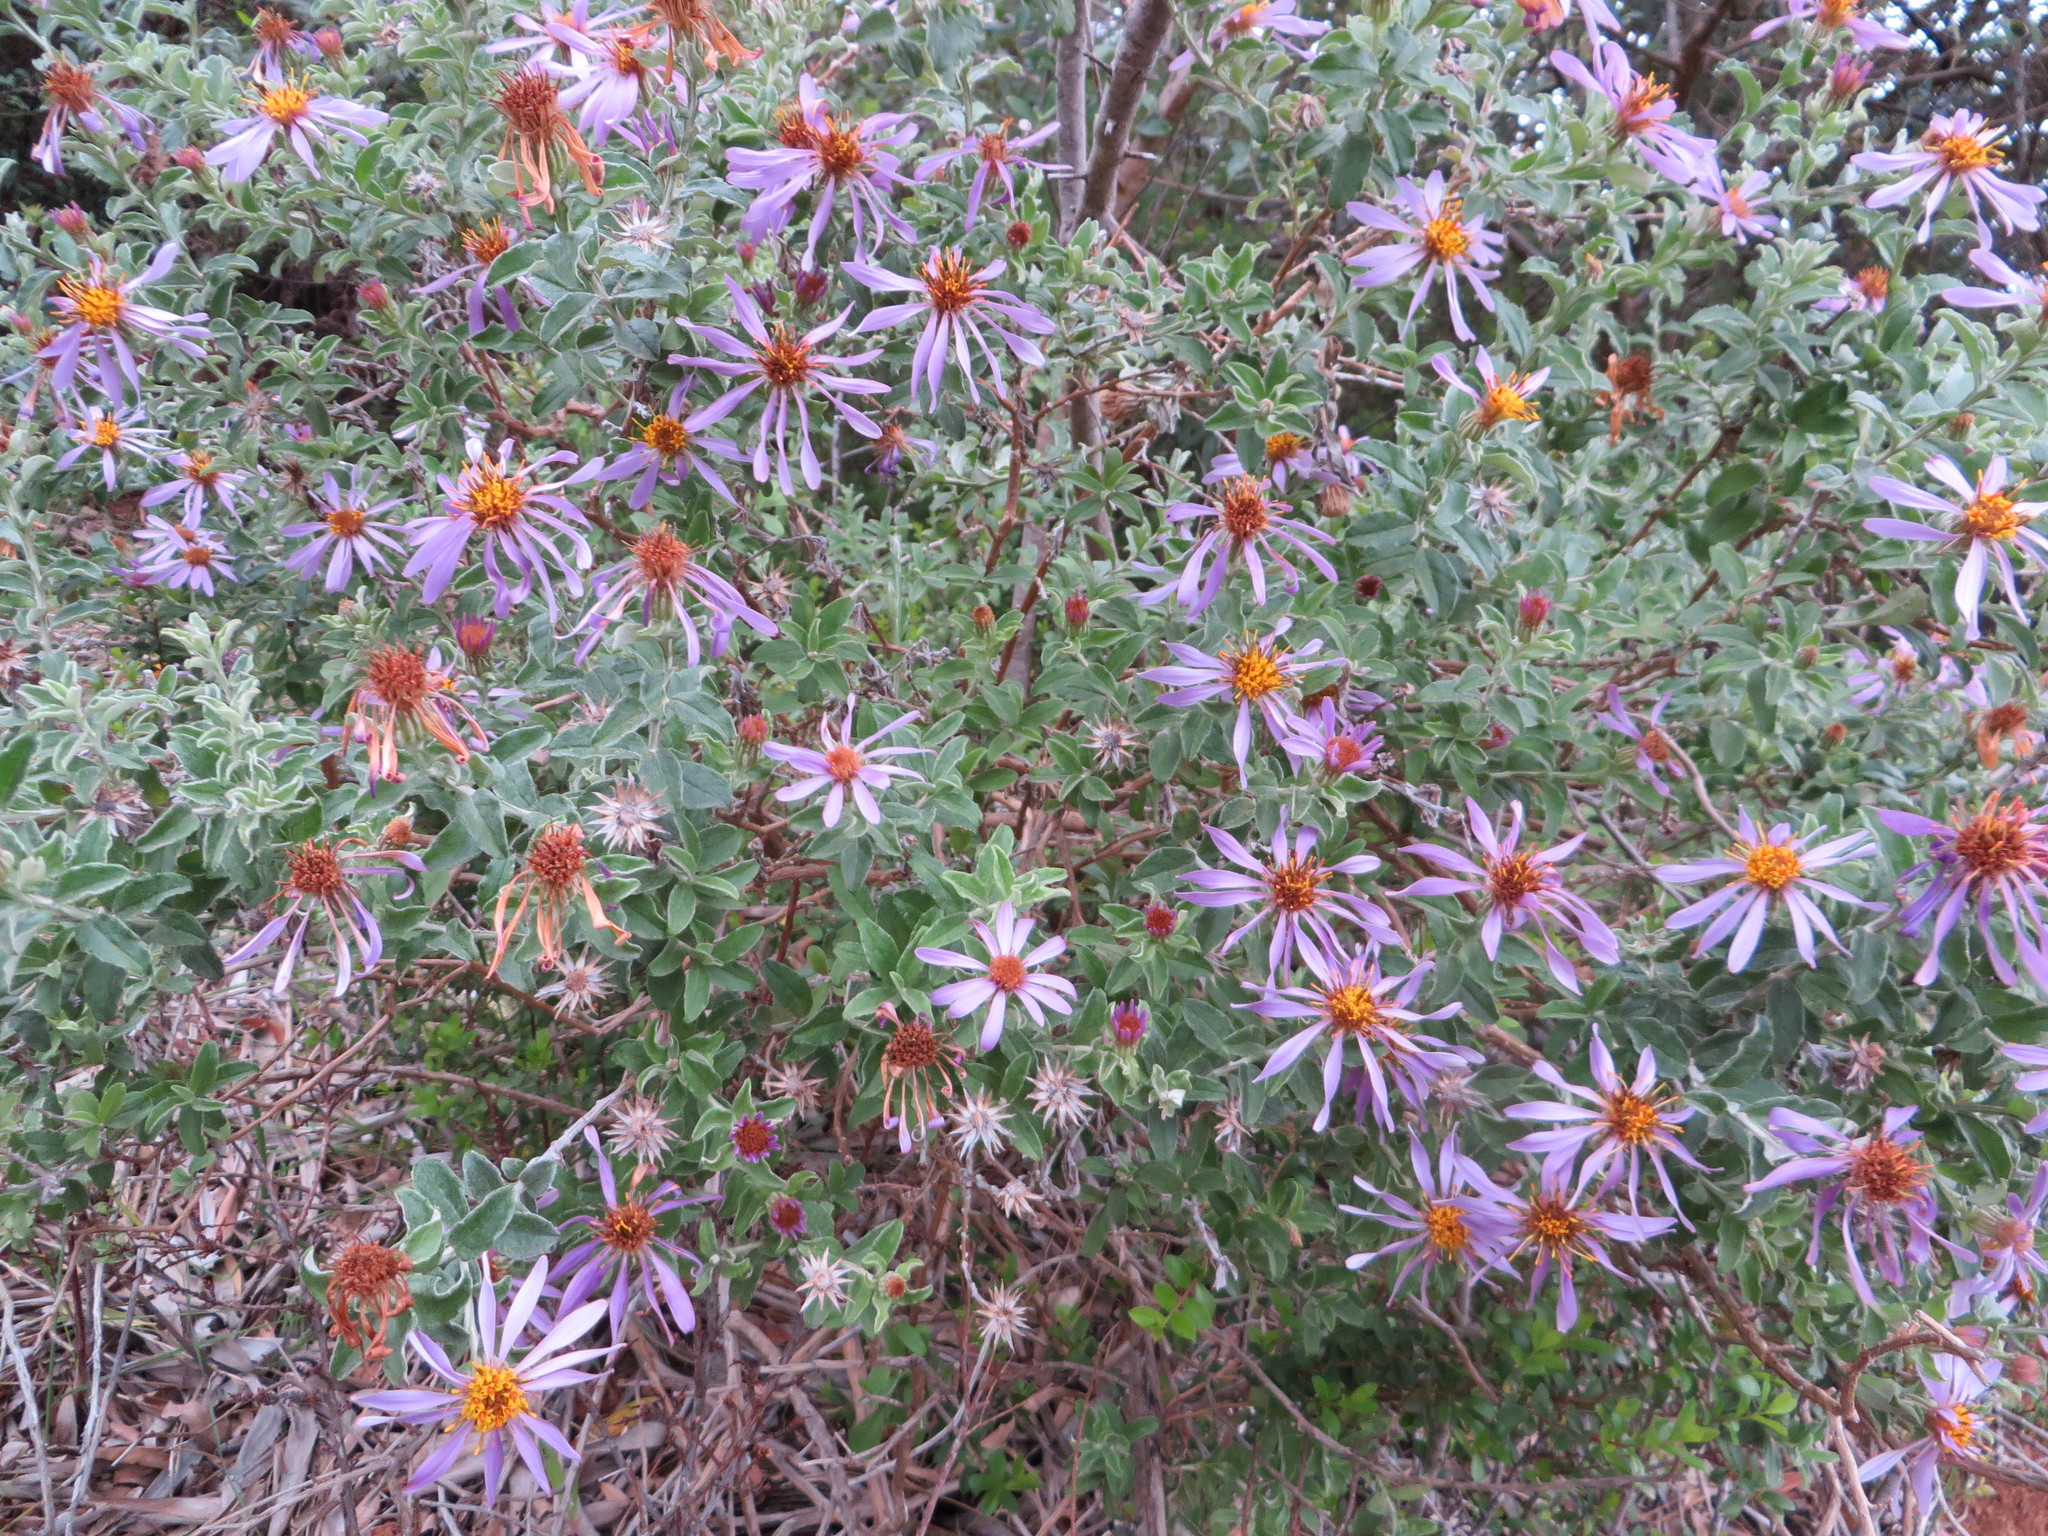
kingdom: Plantae
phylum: Tracheophyta
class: Magnoliopsida
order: Asterales
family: Asteraceae
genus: Printzia
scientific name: Printzia polifolia
